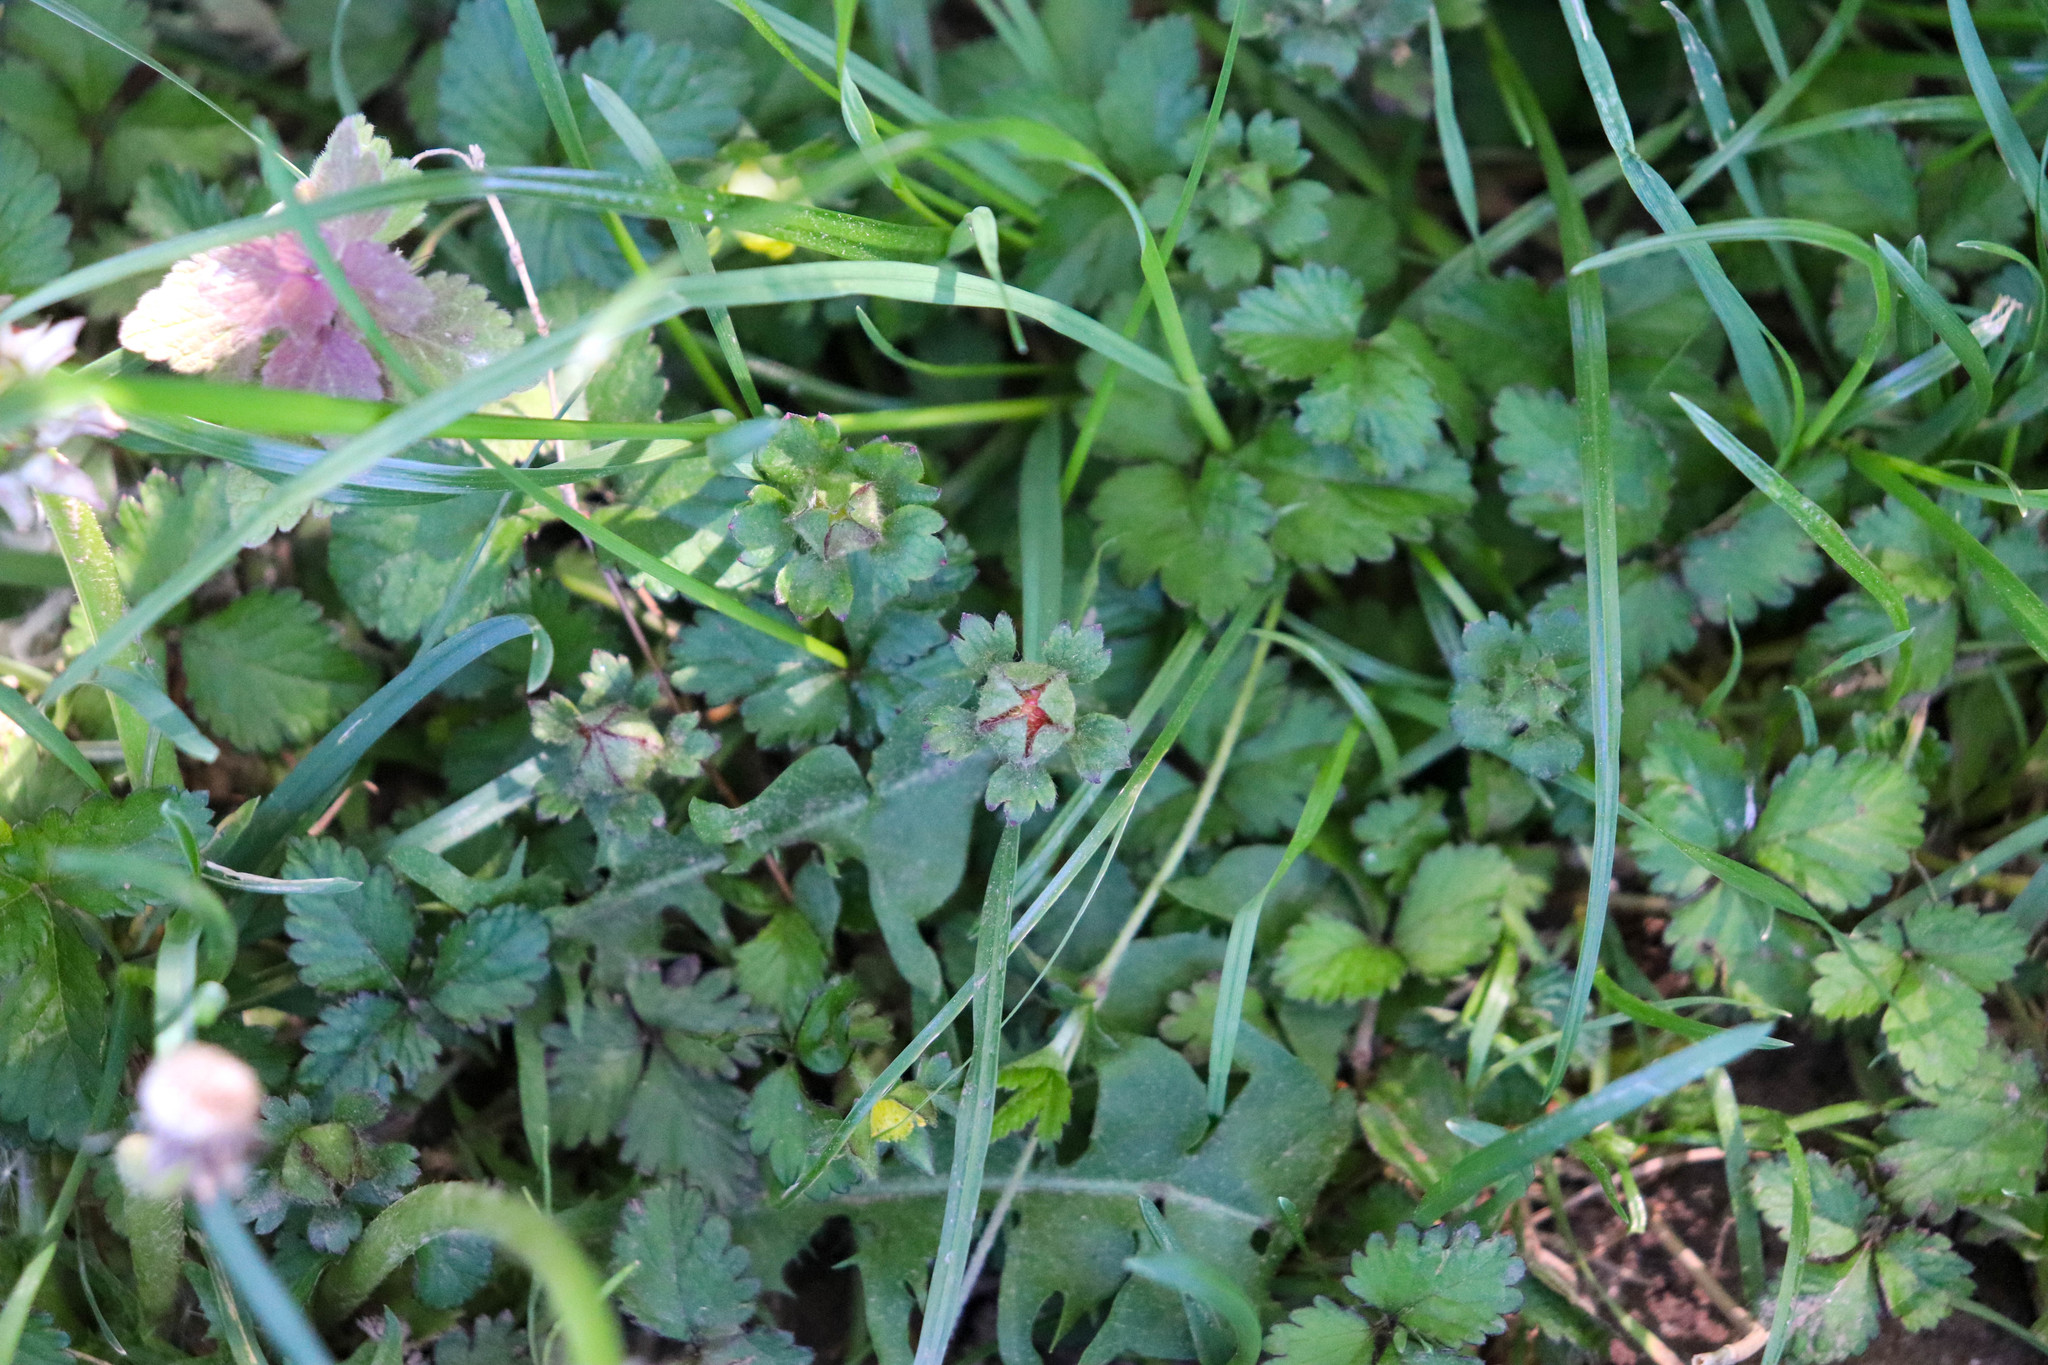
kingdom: Plantae
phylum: Tracheophyta
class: Magnoliopsida
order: Rosales
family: Rosaceae
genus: Potentilla
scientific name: Potentilla indica
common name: Yellow-flowered strawberry
